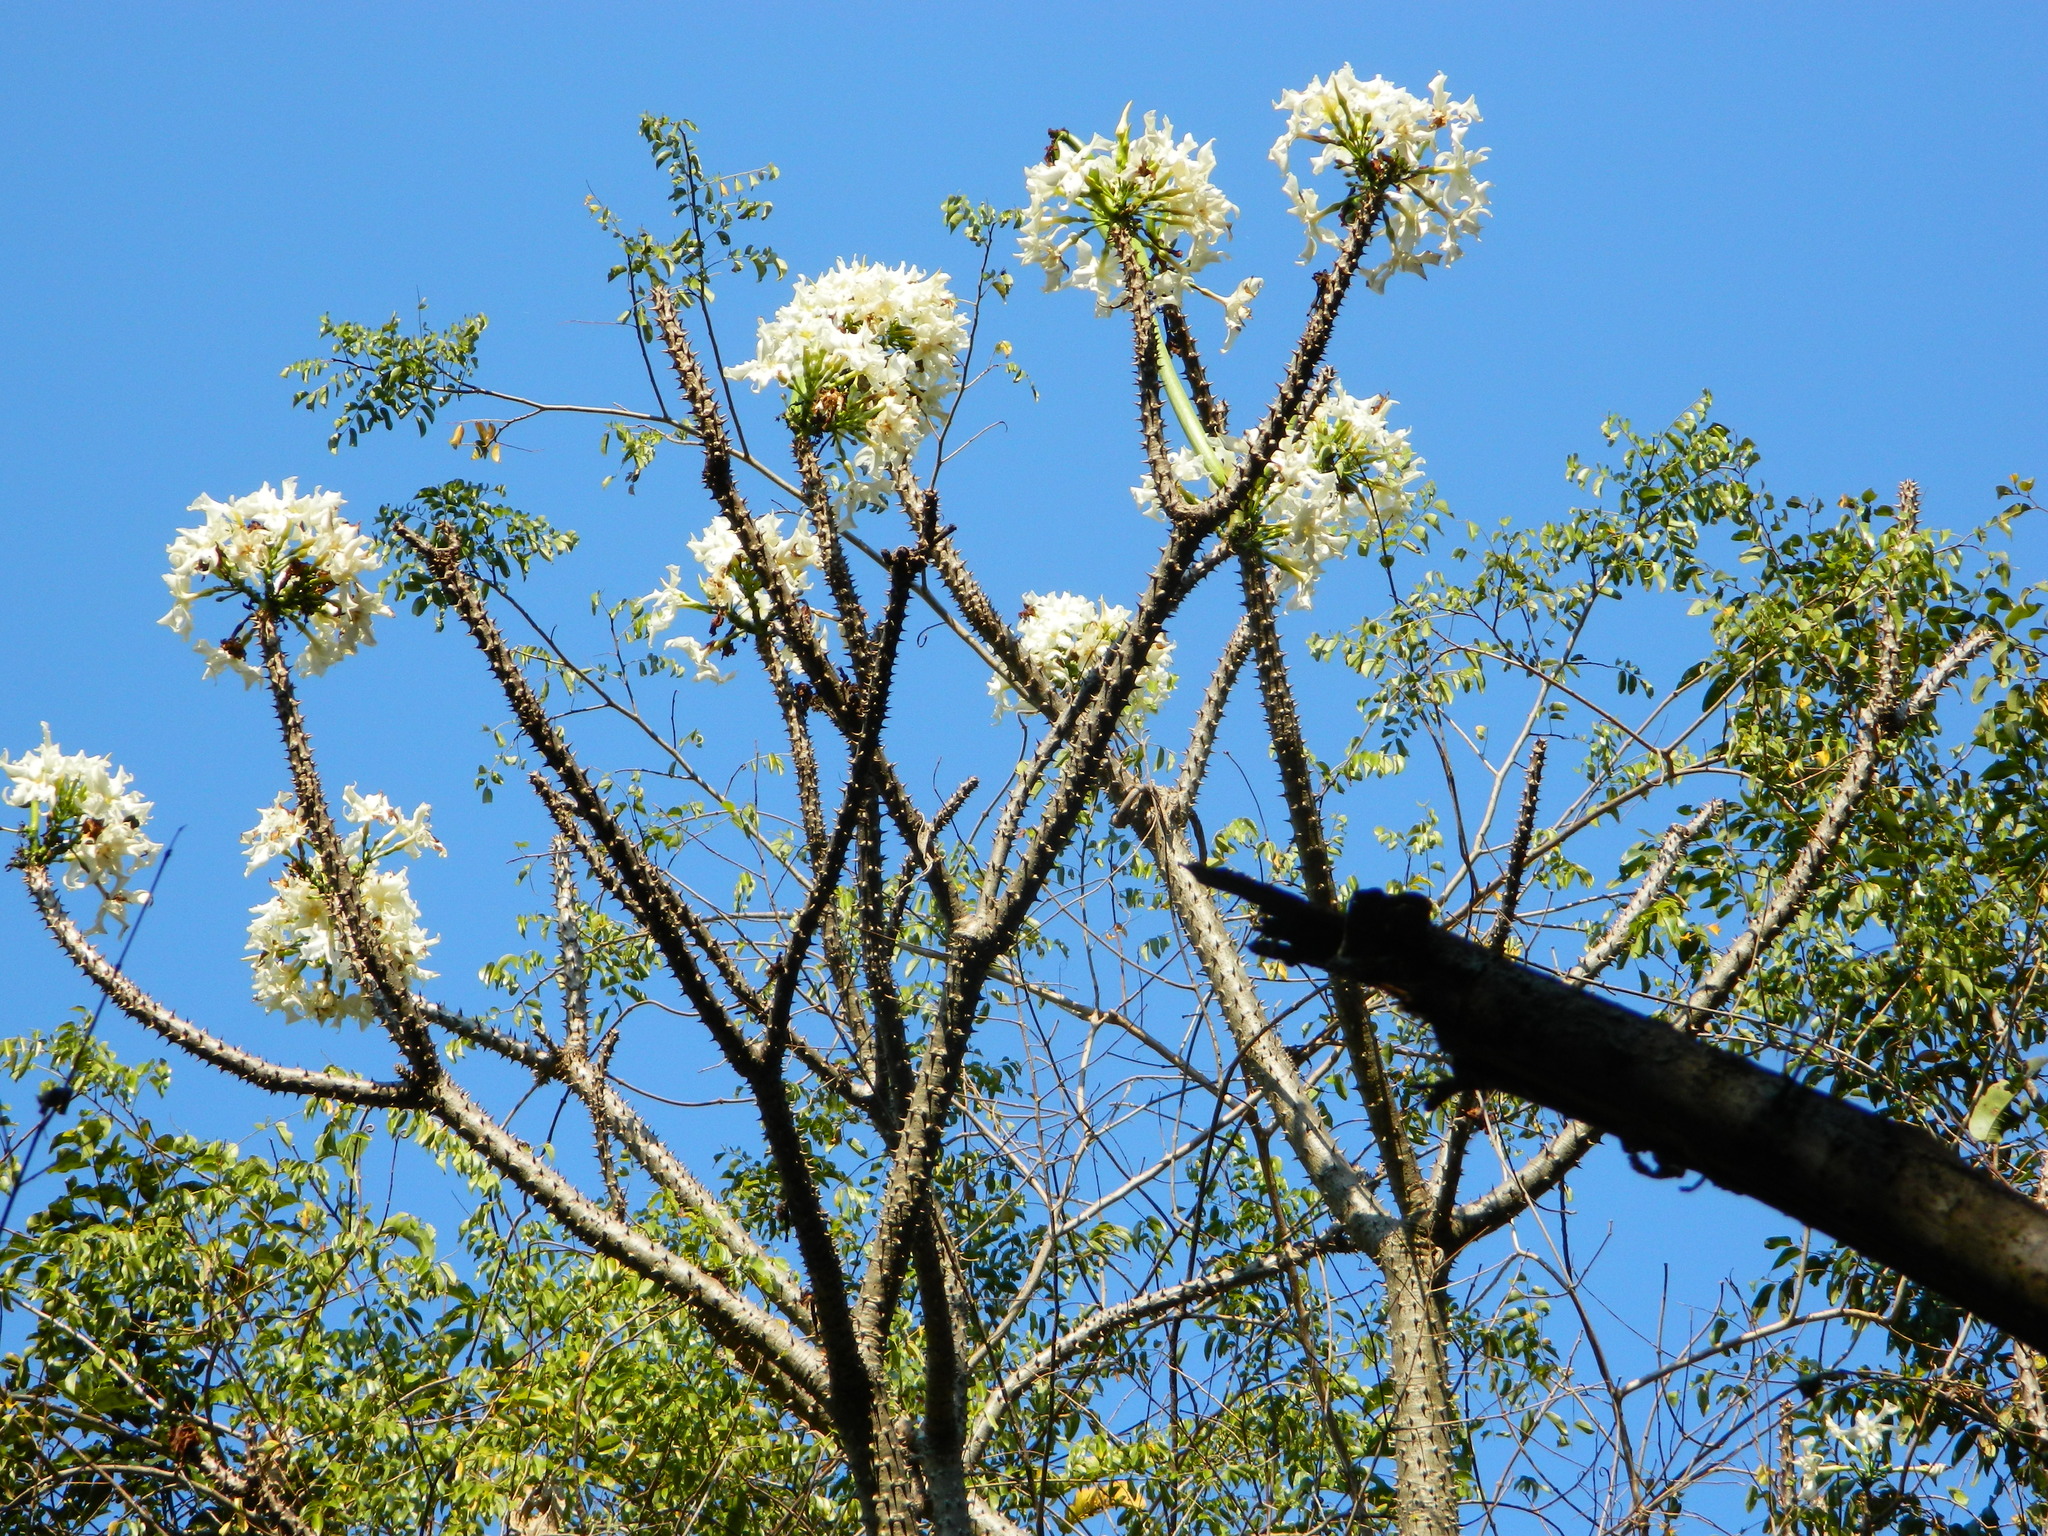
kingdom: Plantae
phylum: Tracheophyta
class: Magnoliopsida
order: Gentianales
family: Apocynaceae
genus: Pachypodium
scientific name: Pachypodium rutenbergianum
